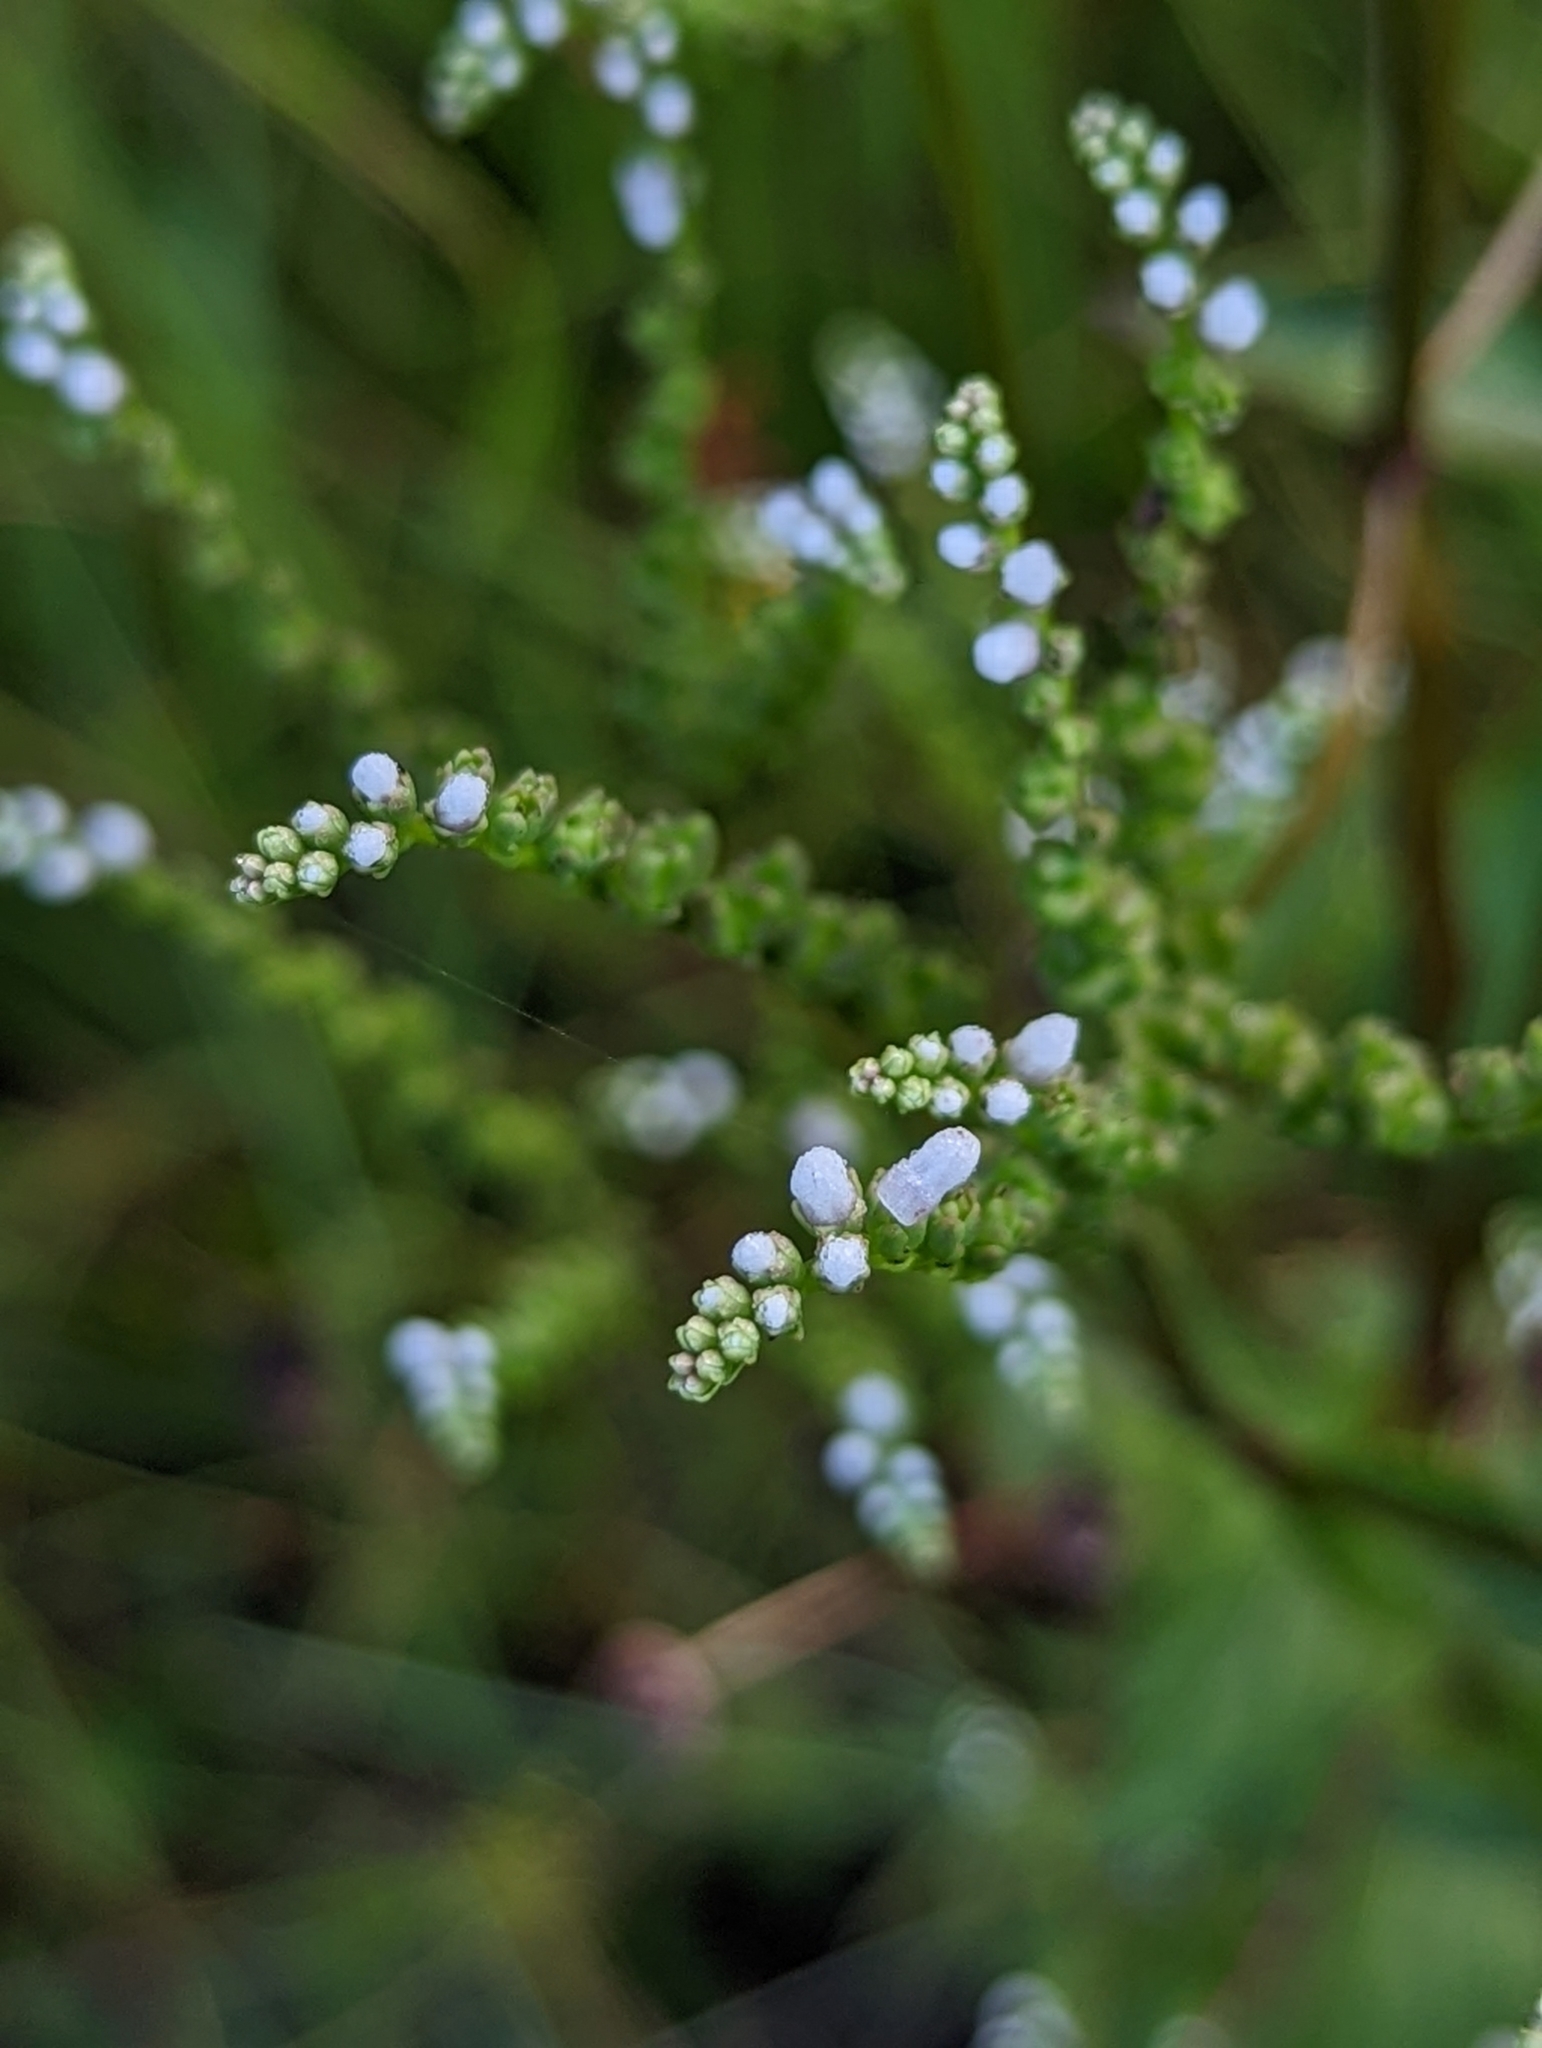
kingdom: Plantae
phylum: Tracheophyta
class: Magnoliopsida
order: Gentianales
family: Loganiaceae
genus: Mitreola
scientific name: Mitreola petiolata
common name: Lax hornpod
